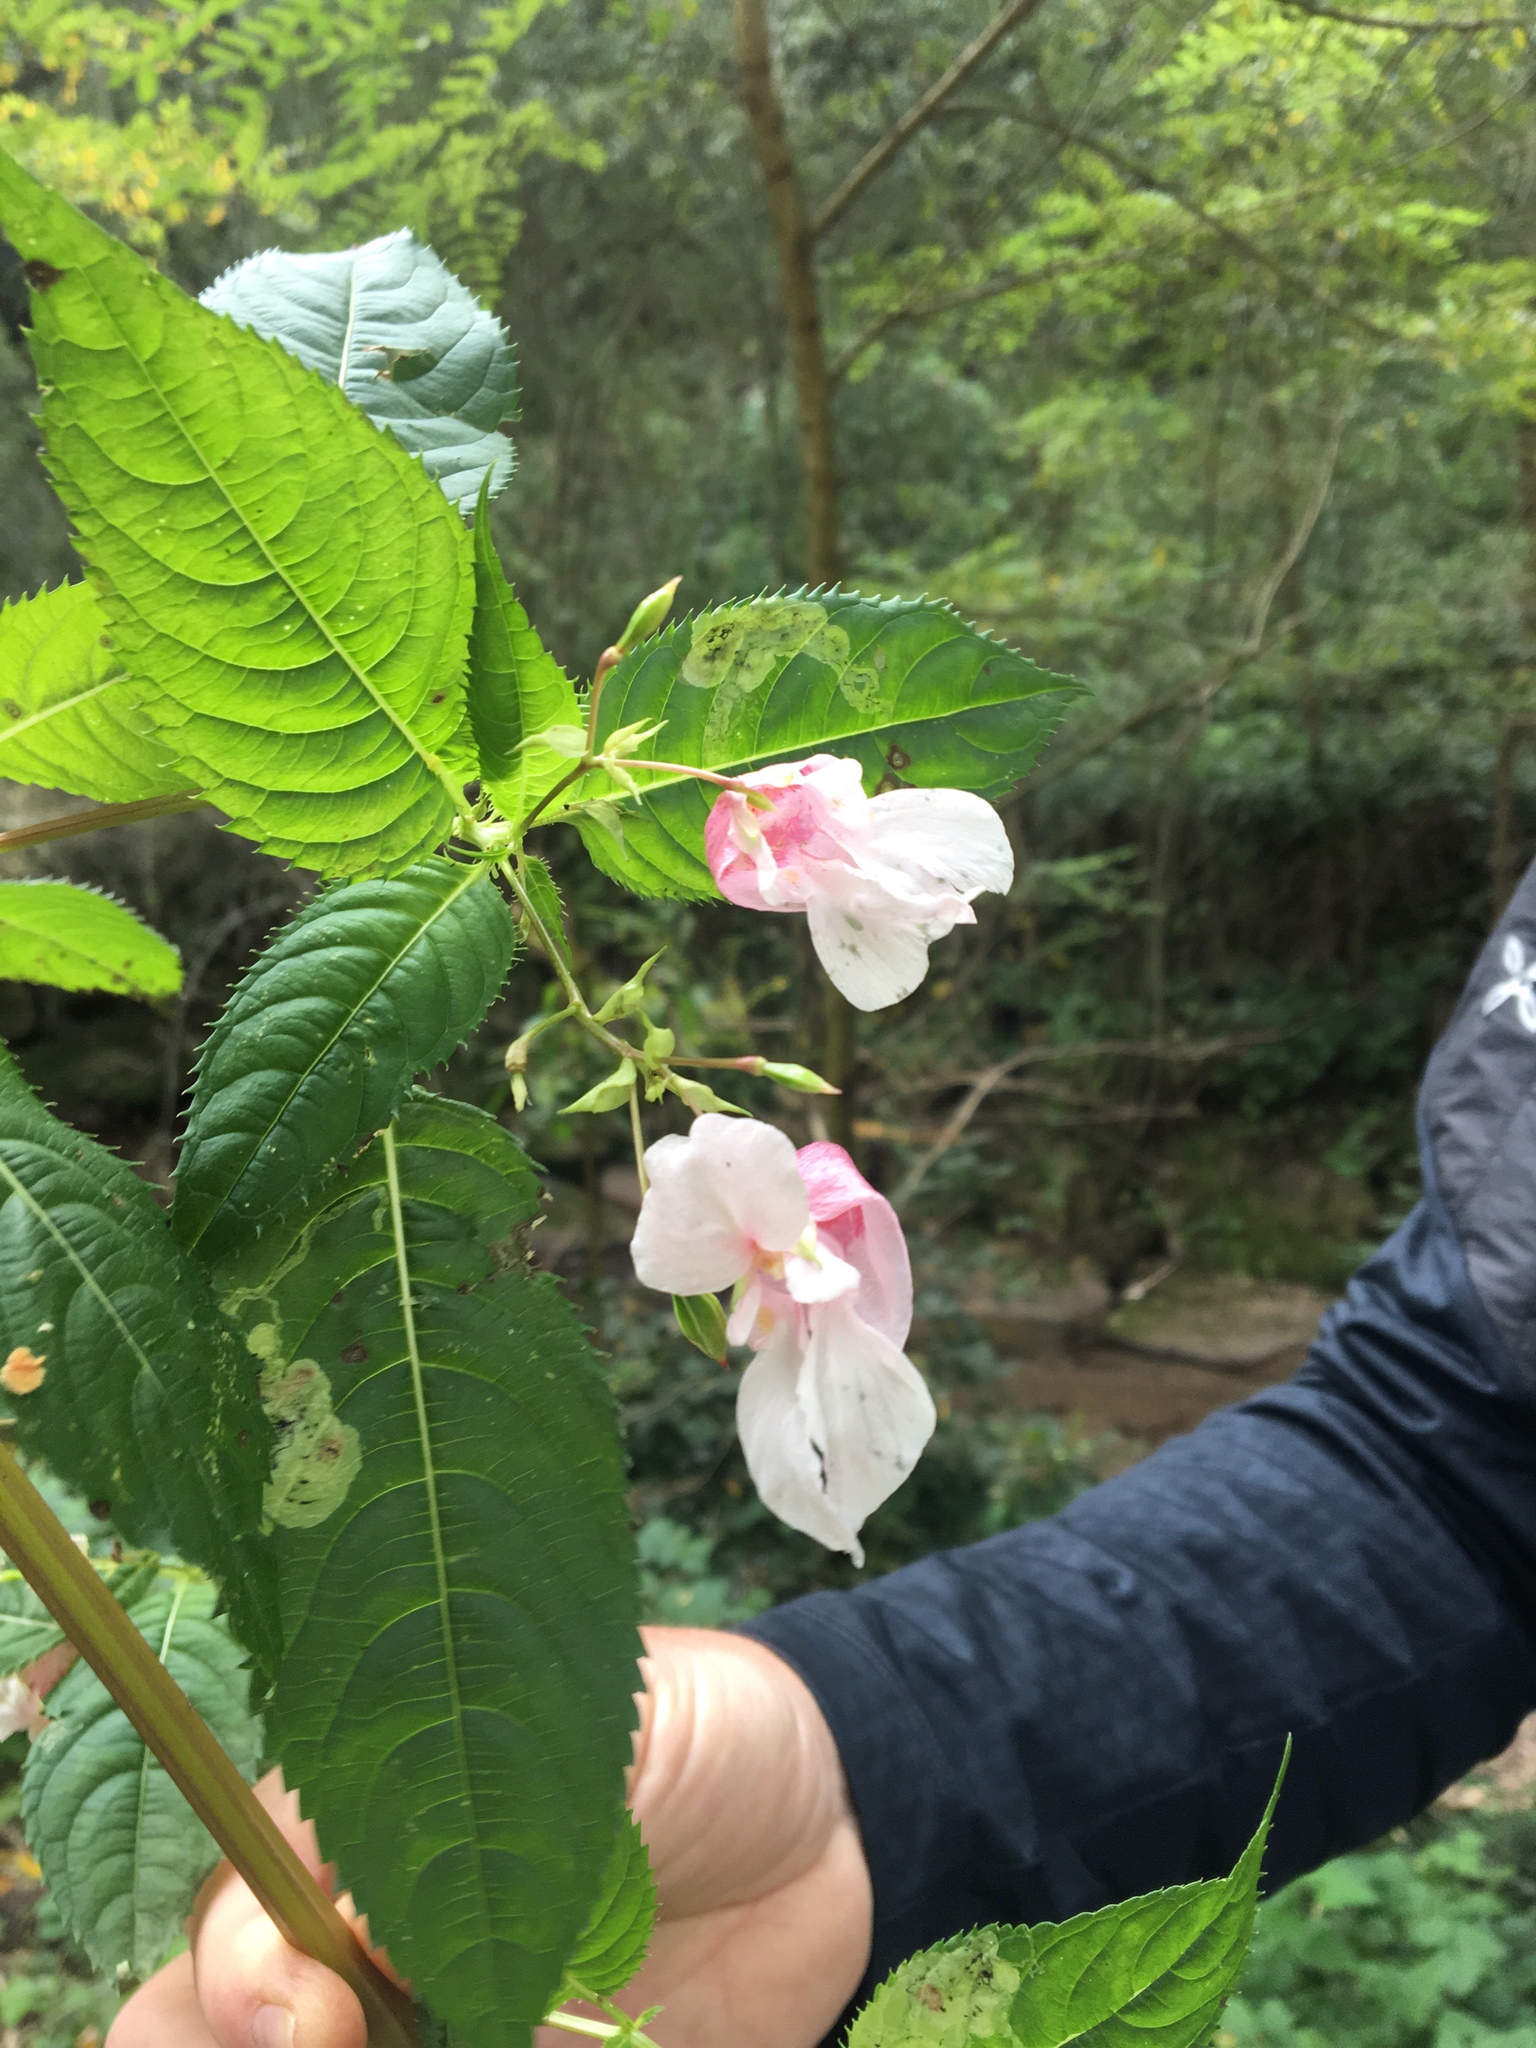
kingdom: Plantae
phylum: Tracheophyta
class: Magnoliopsida
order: Ericales
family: Balsaminaceae
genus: Impatiens
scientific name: Impatiens glandulifera
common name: Himalayan balsam
